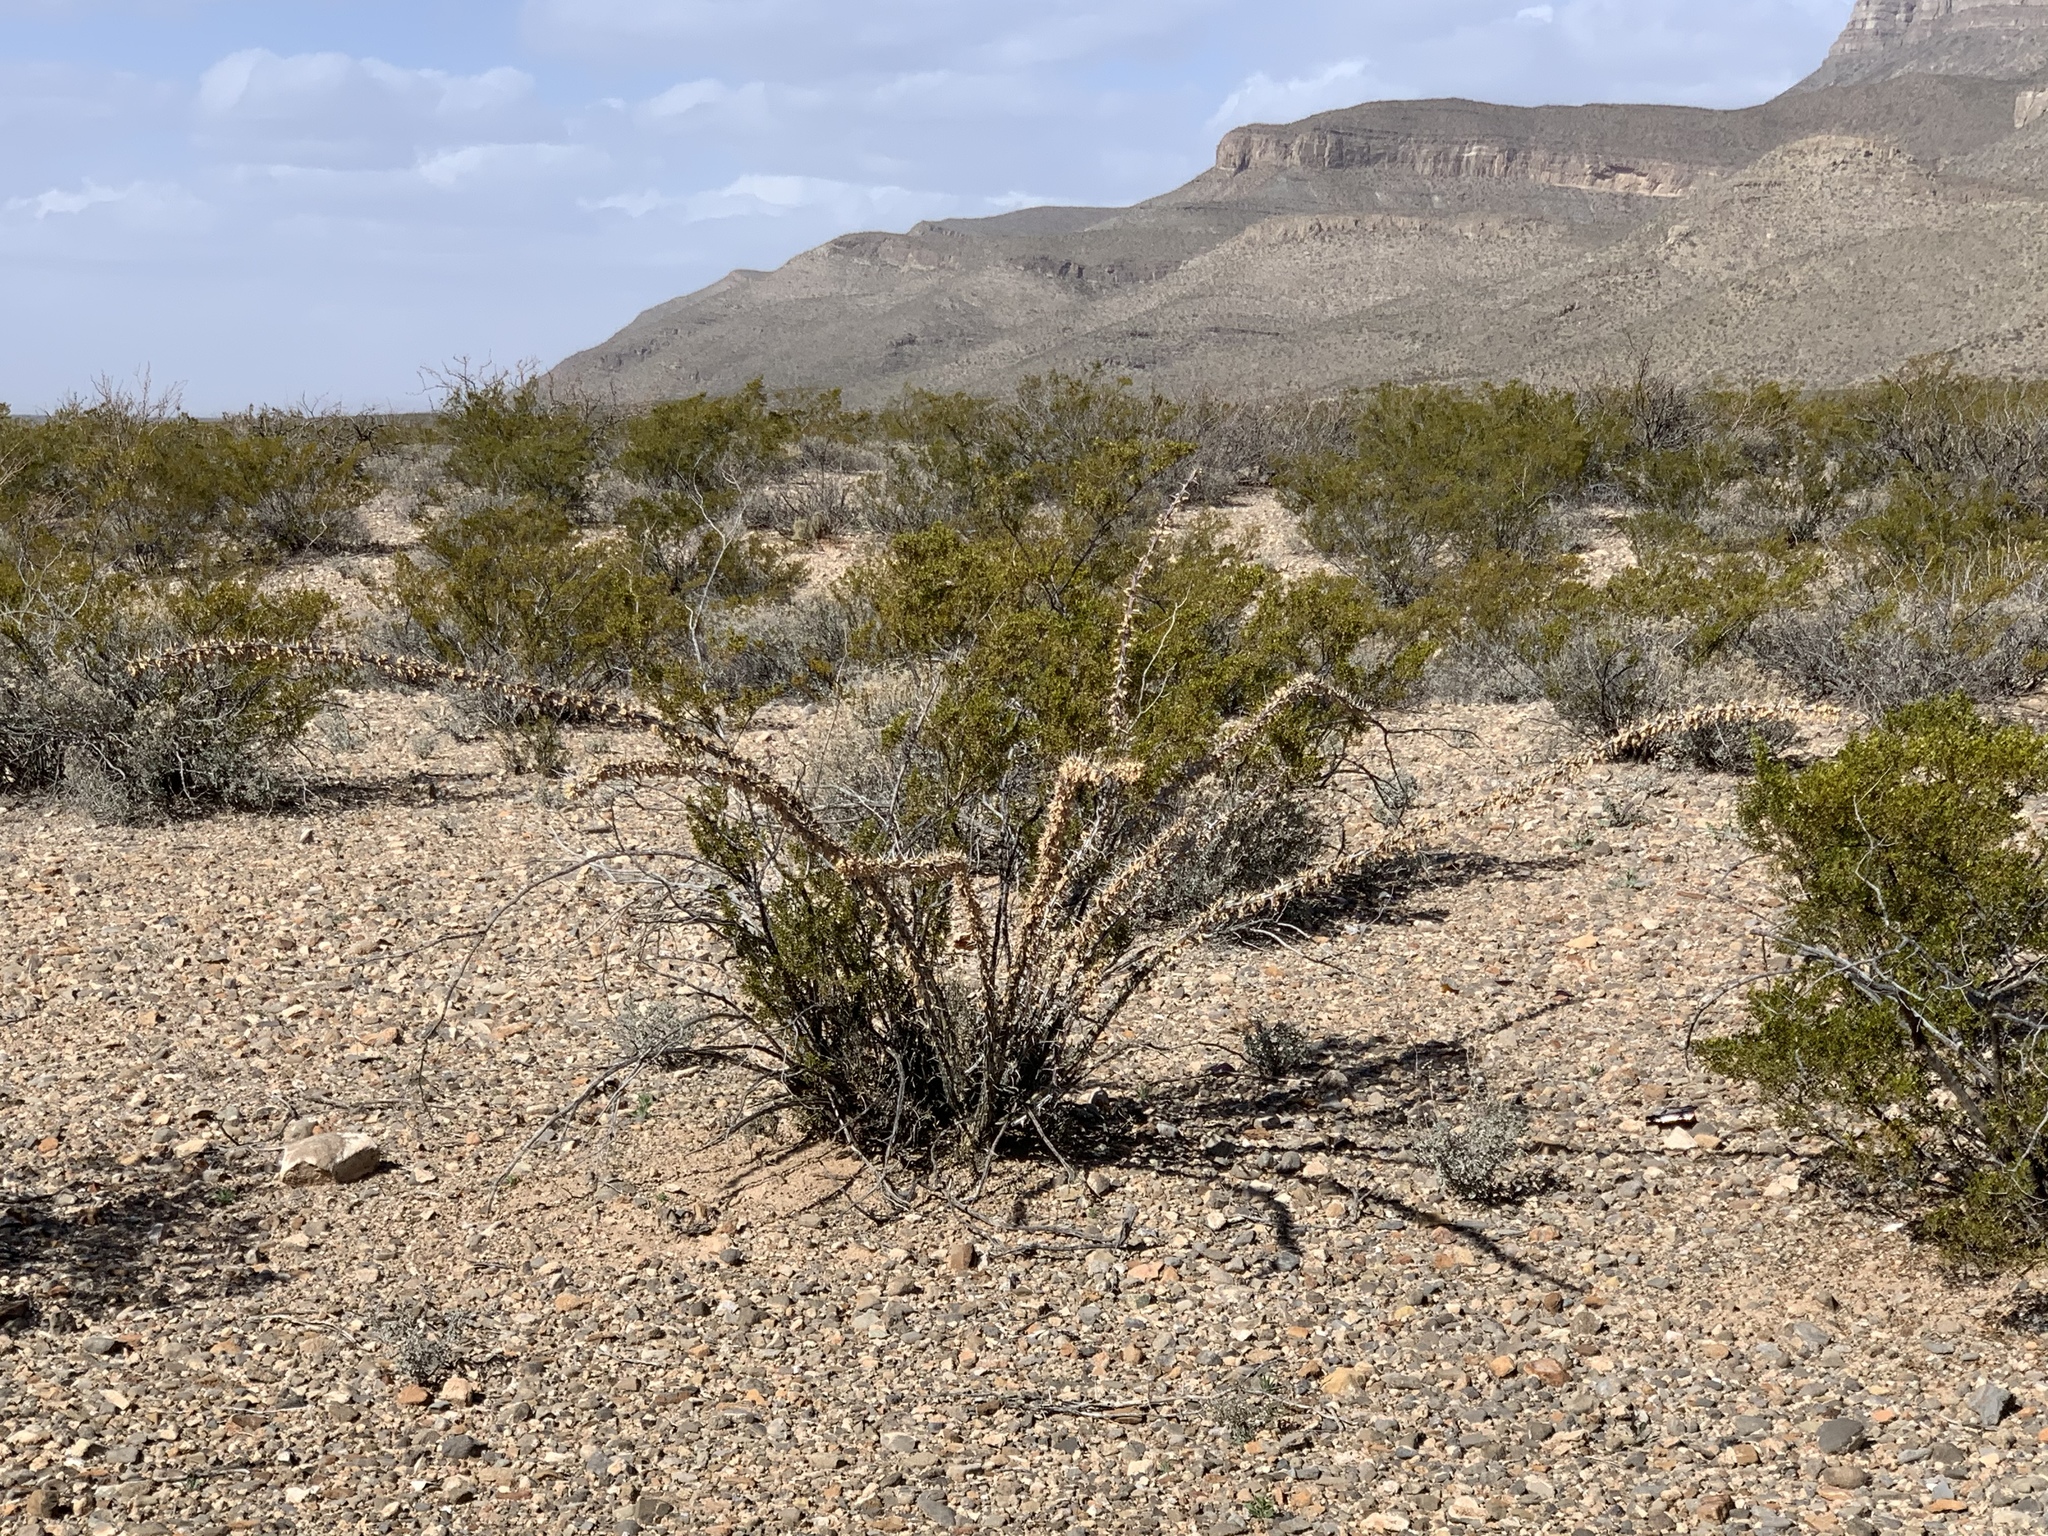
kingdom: Plantae
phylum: Tracheophyta
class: Magnoliopsida
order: Ericales
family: Fouquieriaceae
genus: Fouquieria
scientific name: Fouquieria splendens
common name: Vine-cactus
